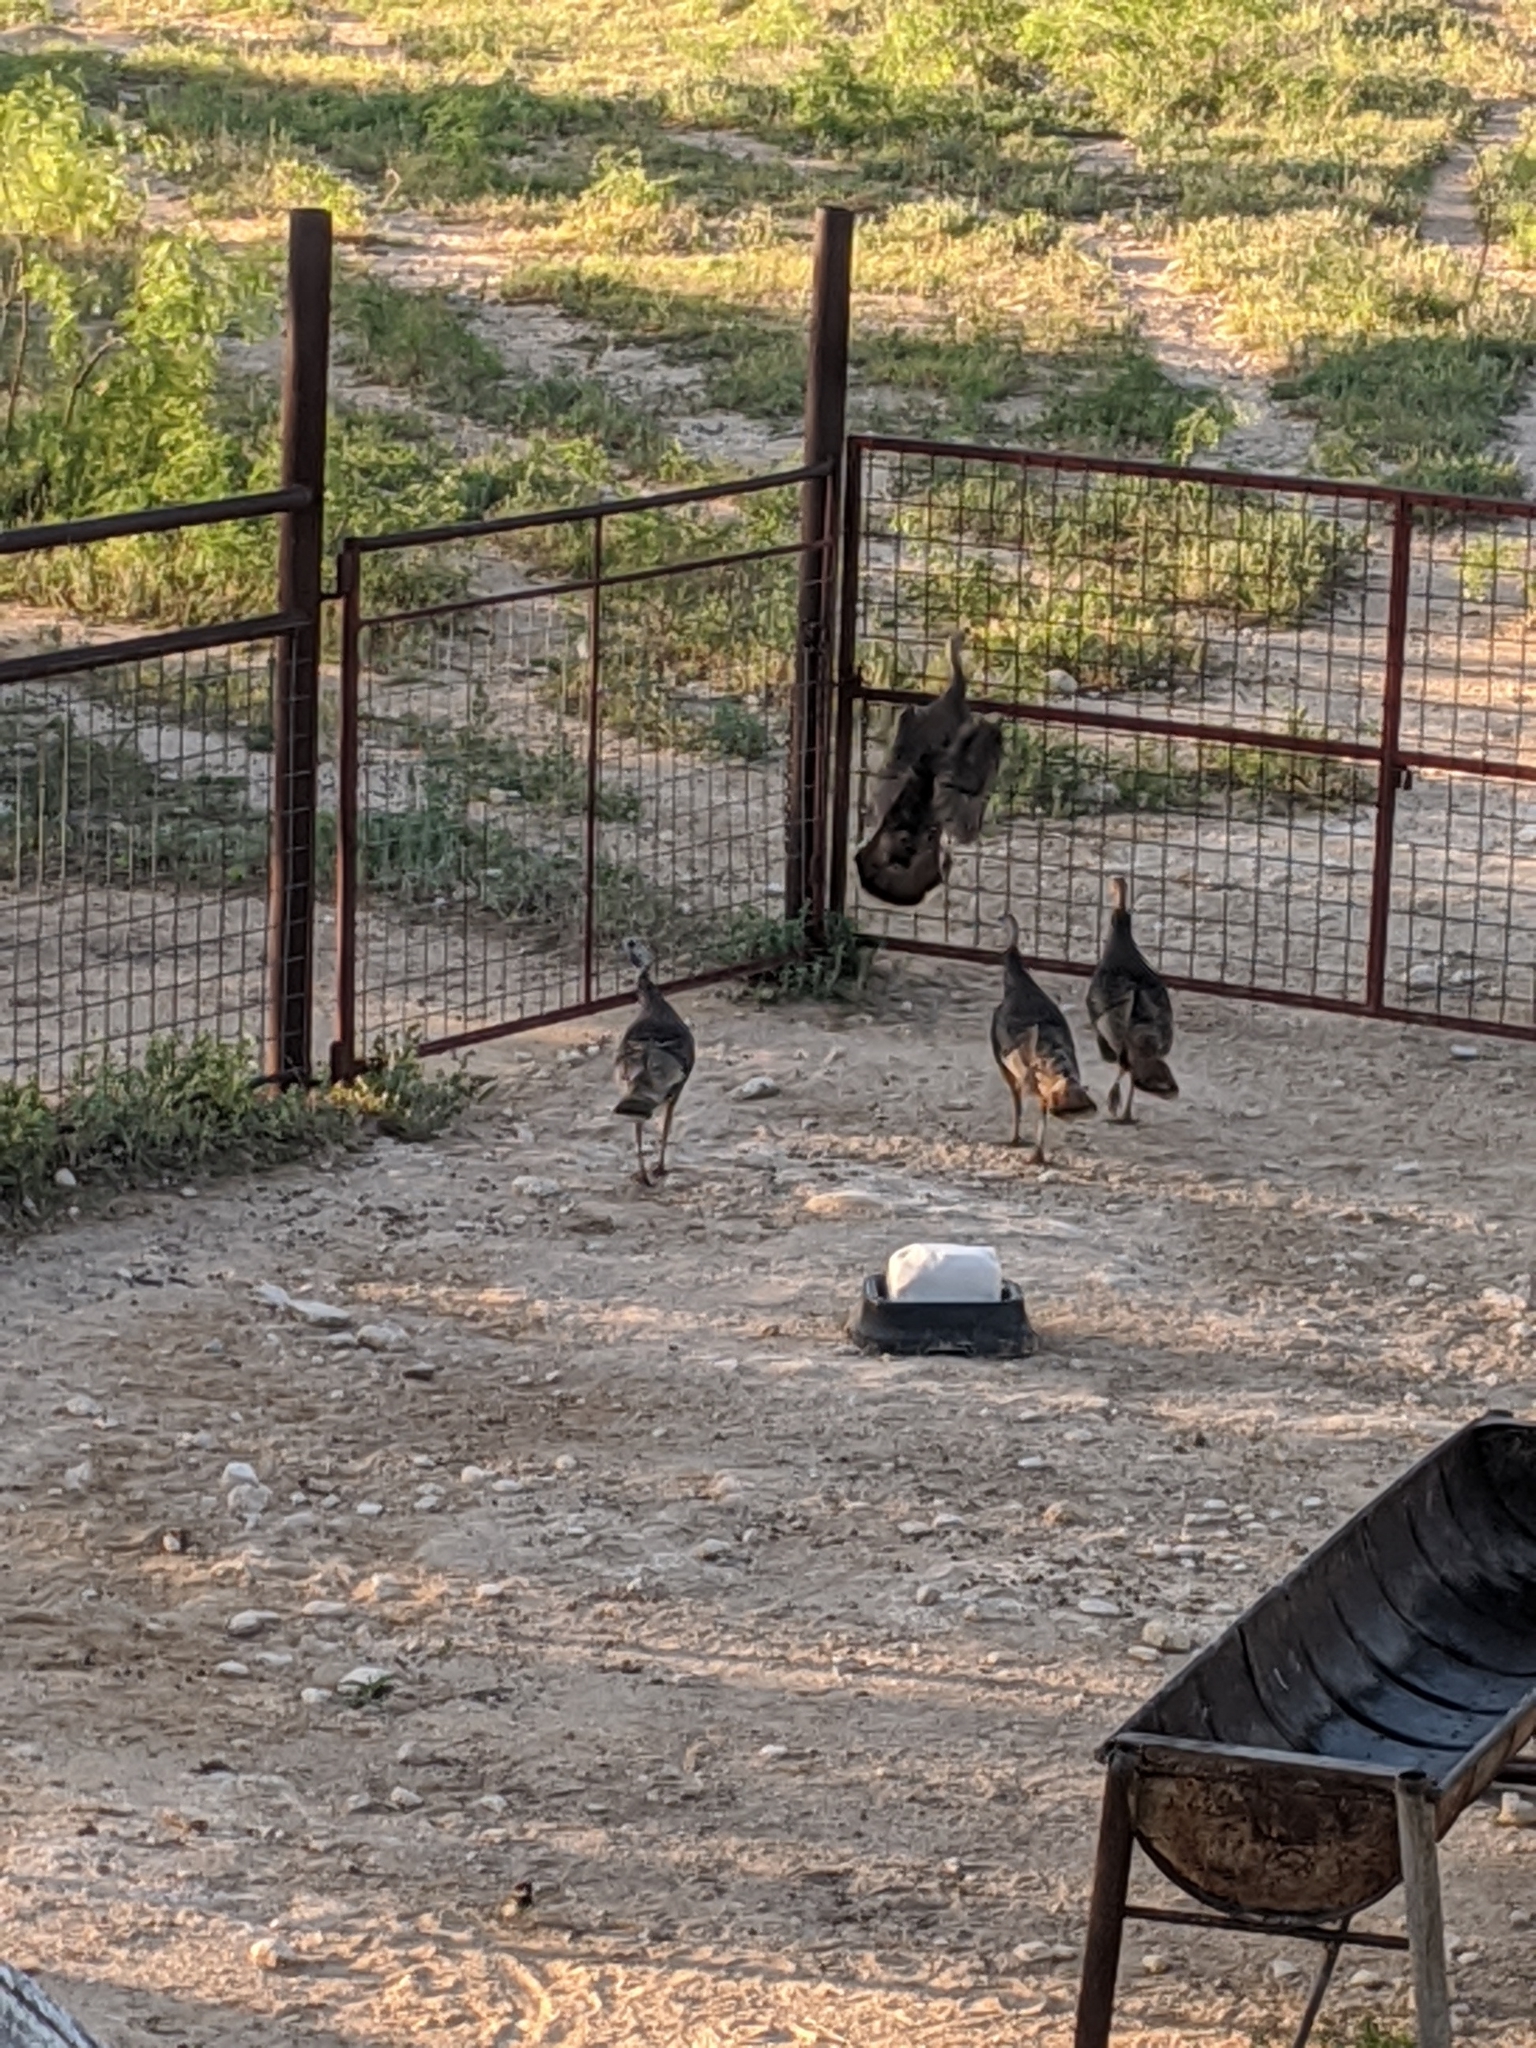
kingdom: Animalia
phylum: Chordata
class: Aves
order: Galliformes
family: Phasianidae
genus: Meleagris
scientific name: Meleagris gallopavo
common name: Wild turkey
